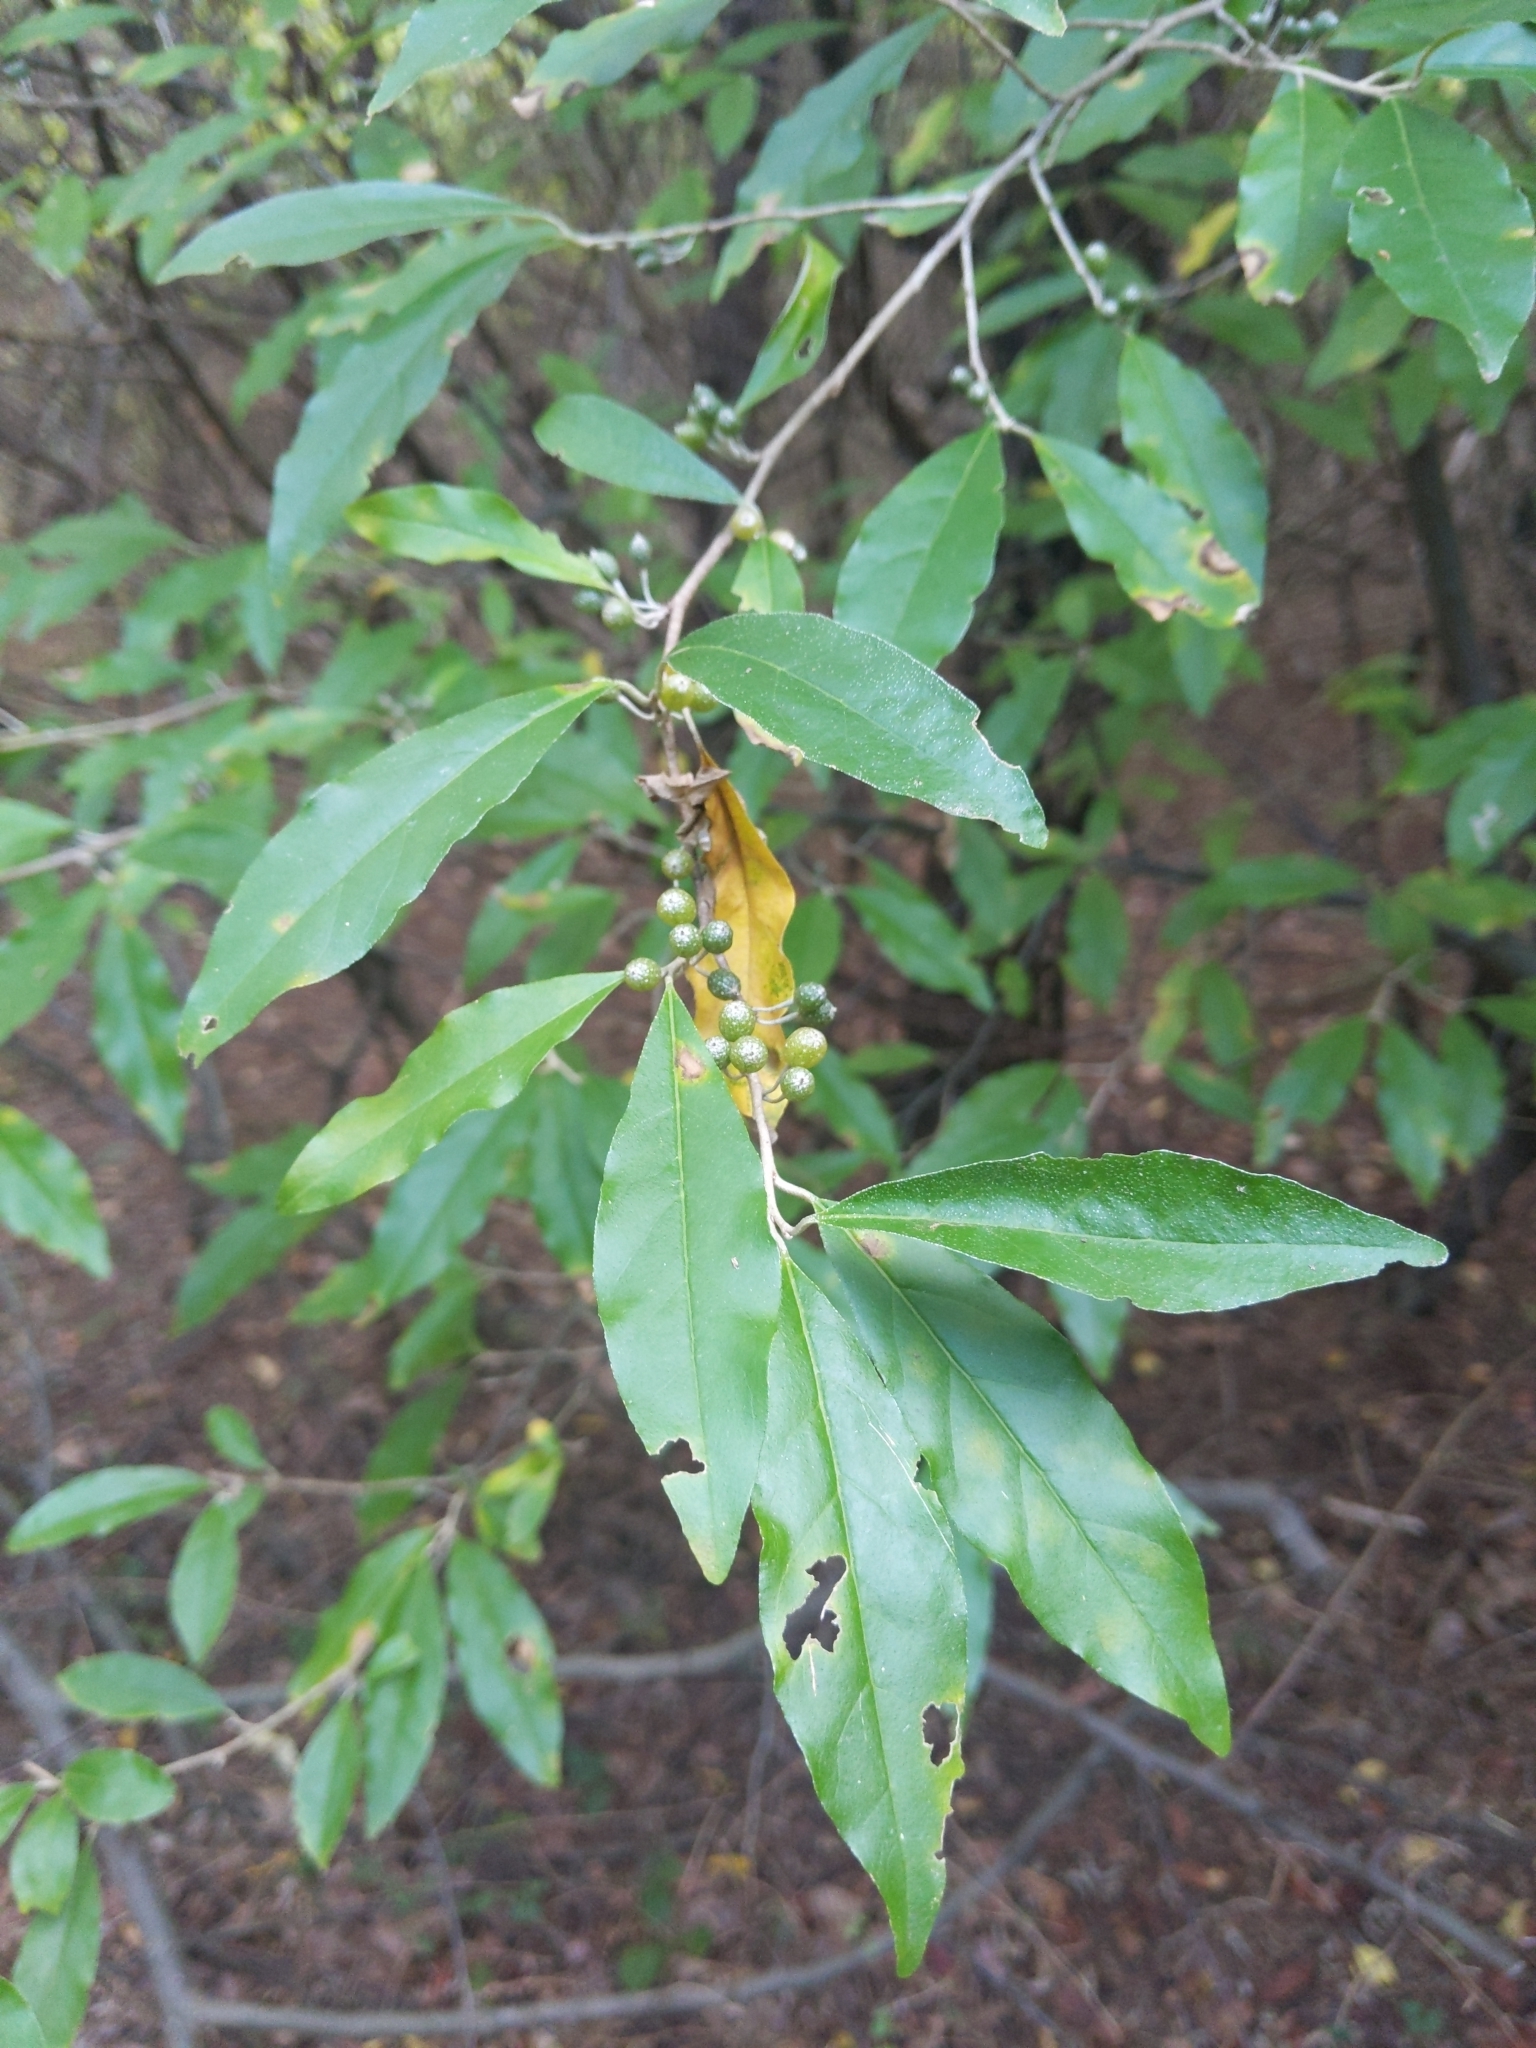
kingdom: Plantae
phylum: Tracheophyta
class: Magnoliopsida
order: Rosales
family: Elaeagnaceae
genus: Elaeagnus
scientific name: Elaeagnus umbellata
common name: Autumn olive
